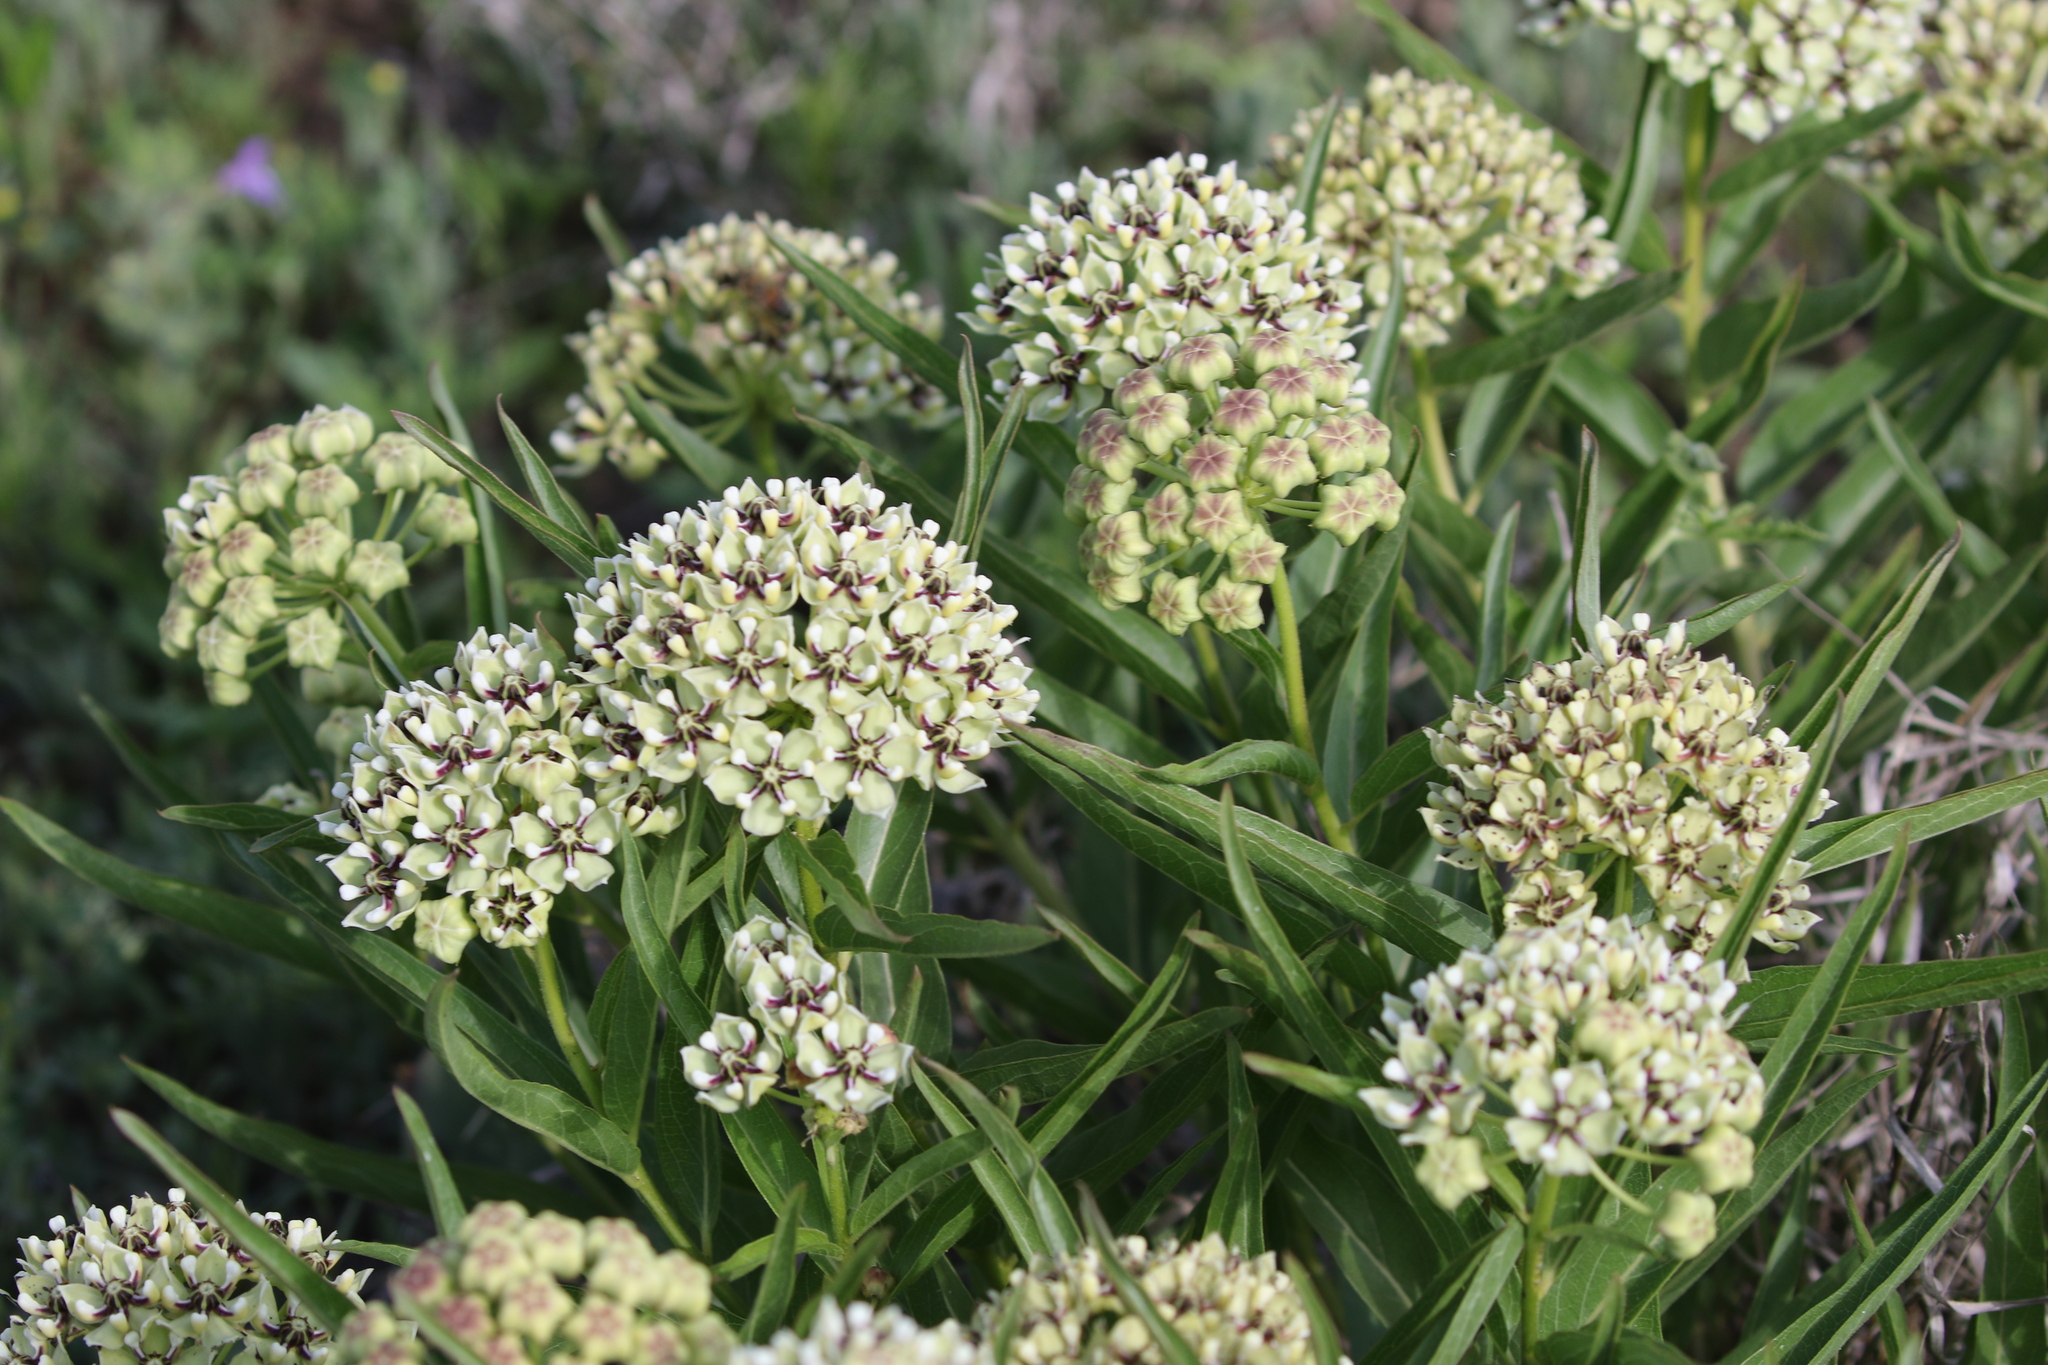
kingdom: Plantae
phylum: Tracheophyta
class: Magnoliopsida
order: Gentianales
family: Apocynaceae
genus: Asclepias
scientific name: Asclepias asperula
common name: Antelope horns
